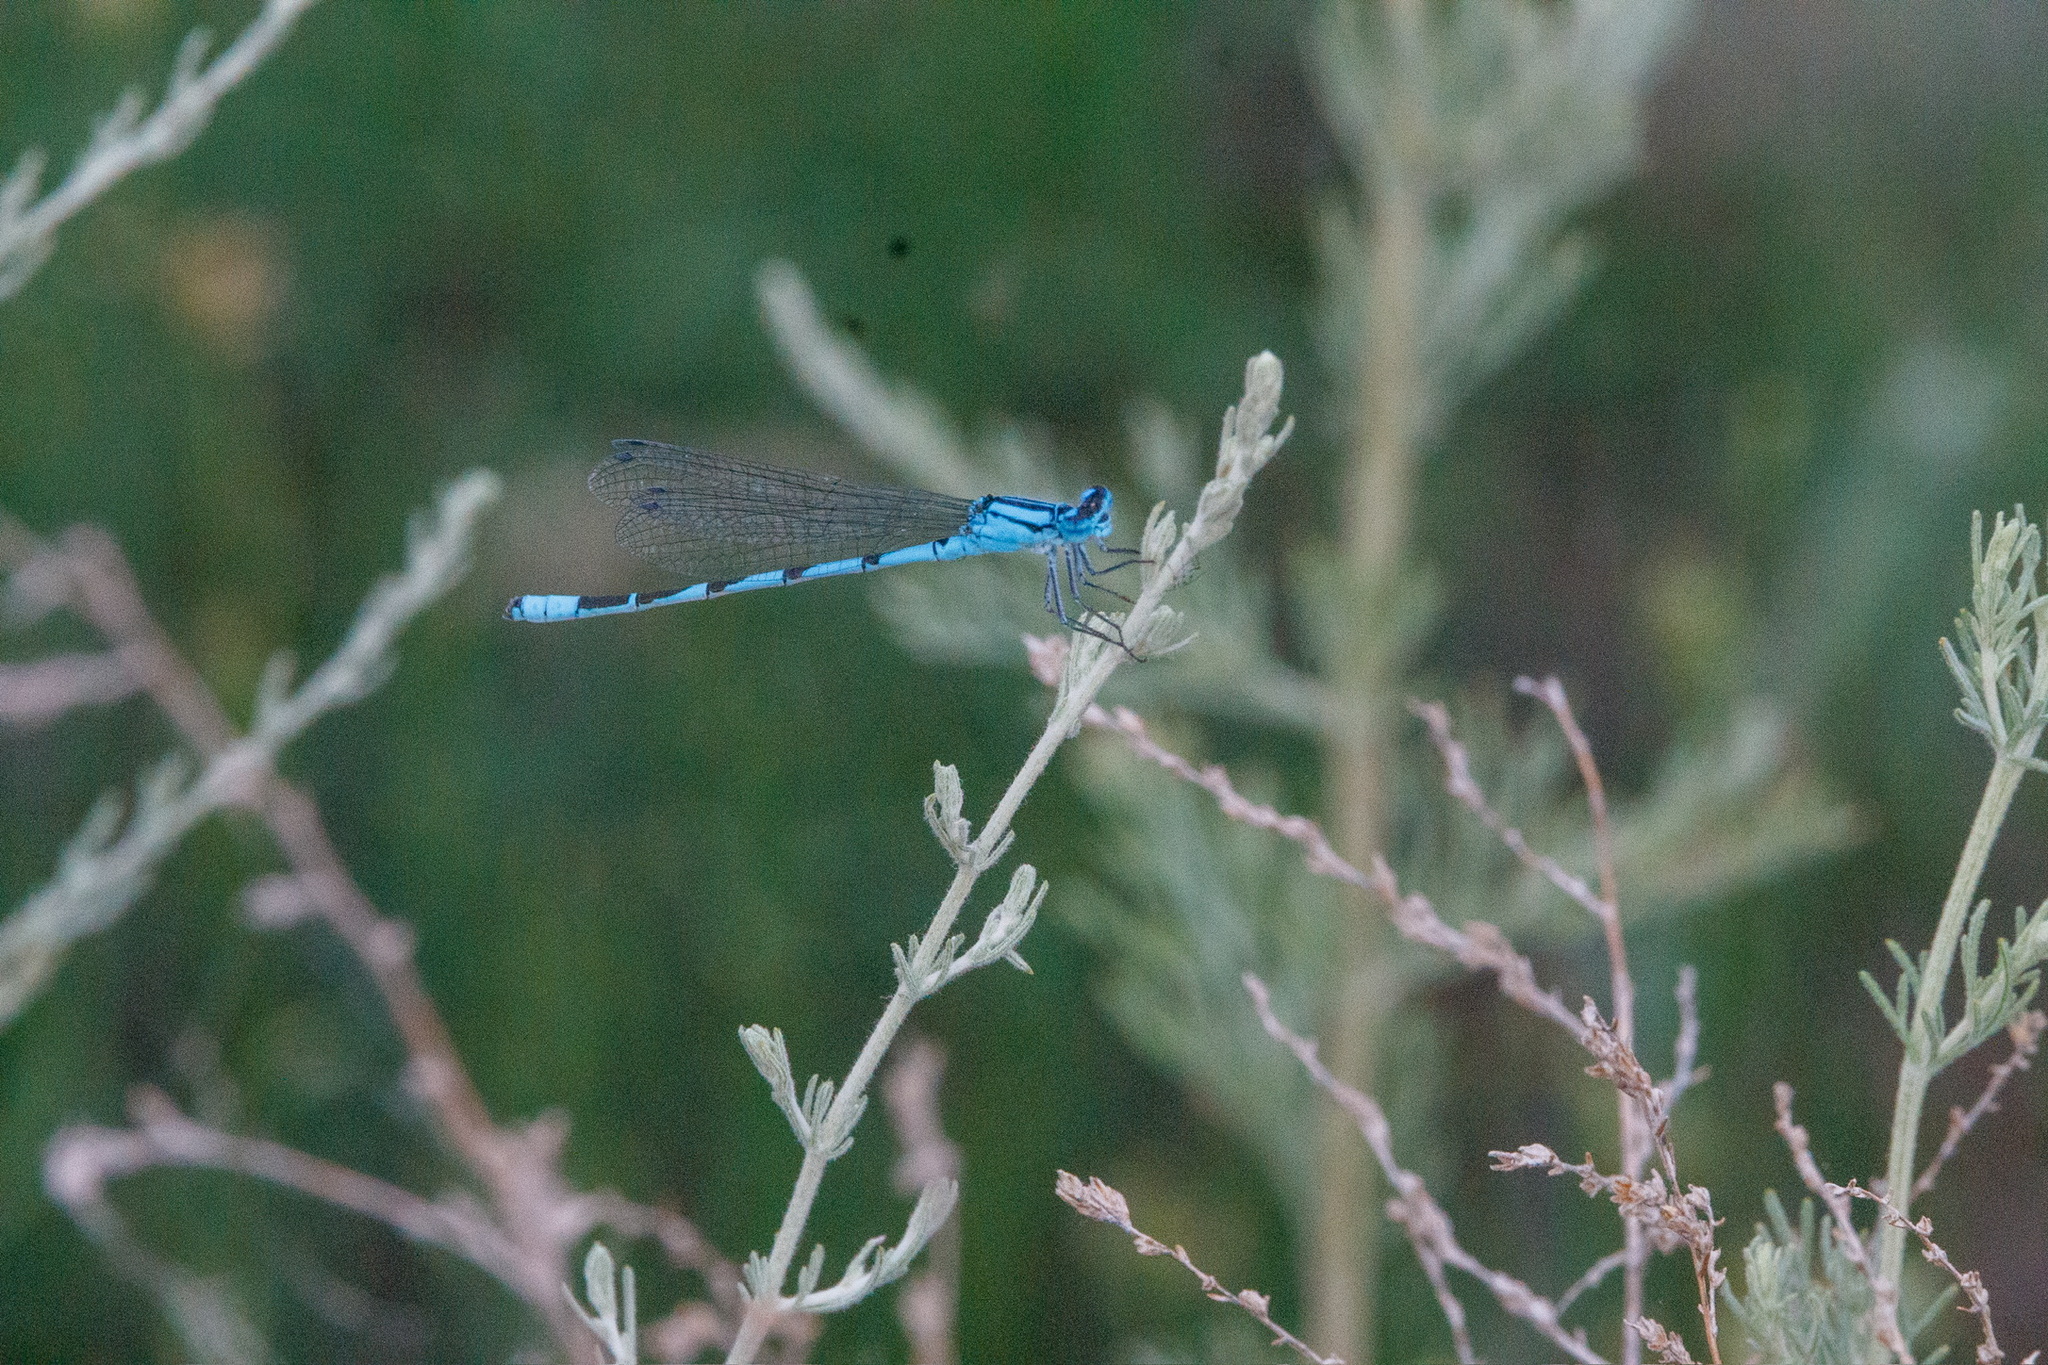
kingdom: Animalia
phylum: Arthropoda
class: Insecta
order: Odonata
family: Coenagrionidae
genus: Enallagma
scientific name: Enallagma cyathigerum
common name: Common blue damselfly
